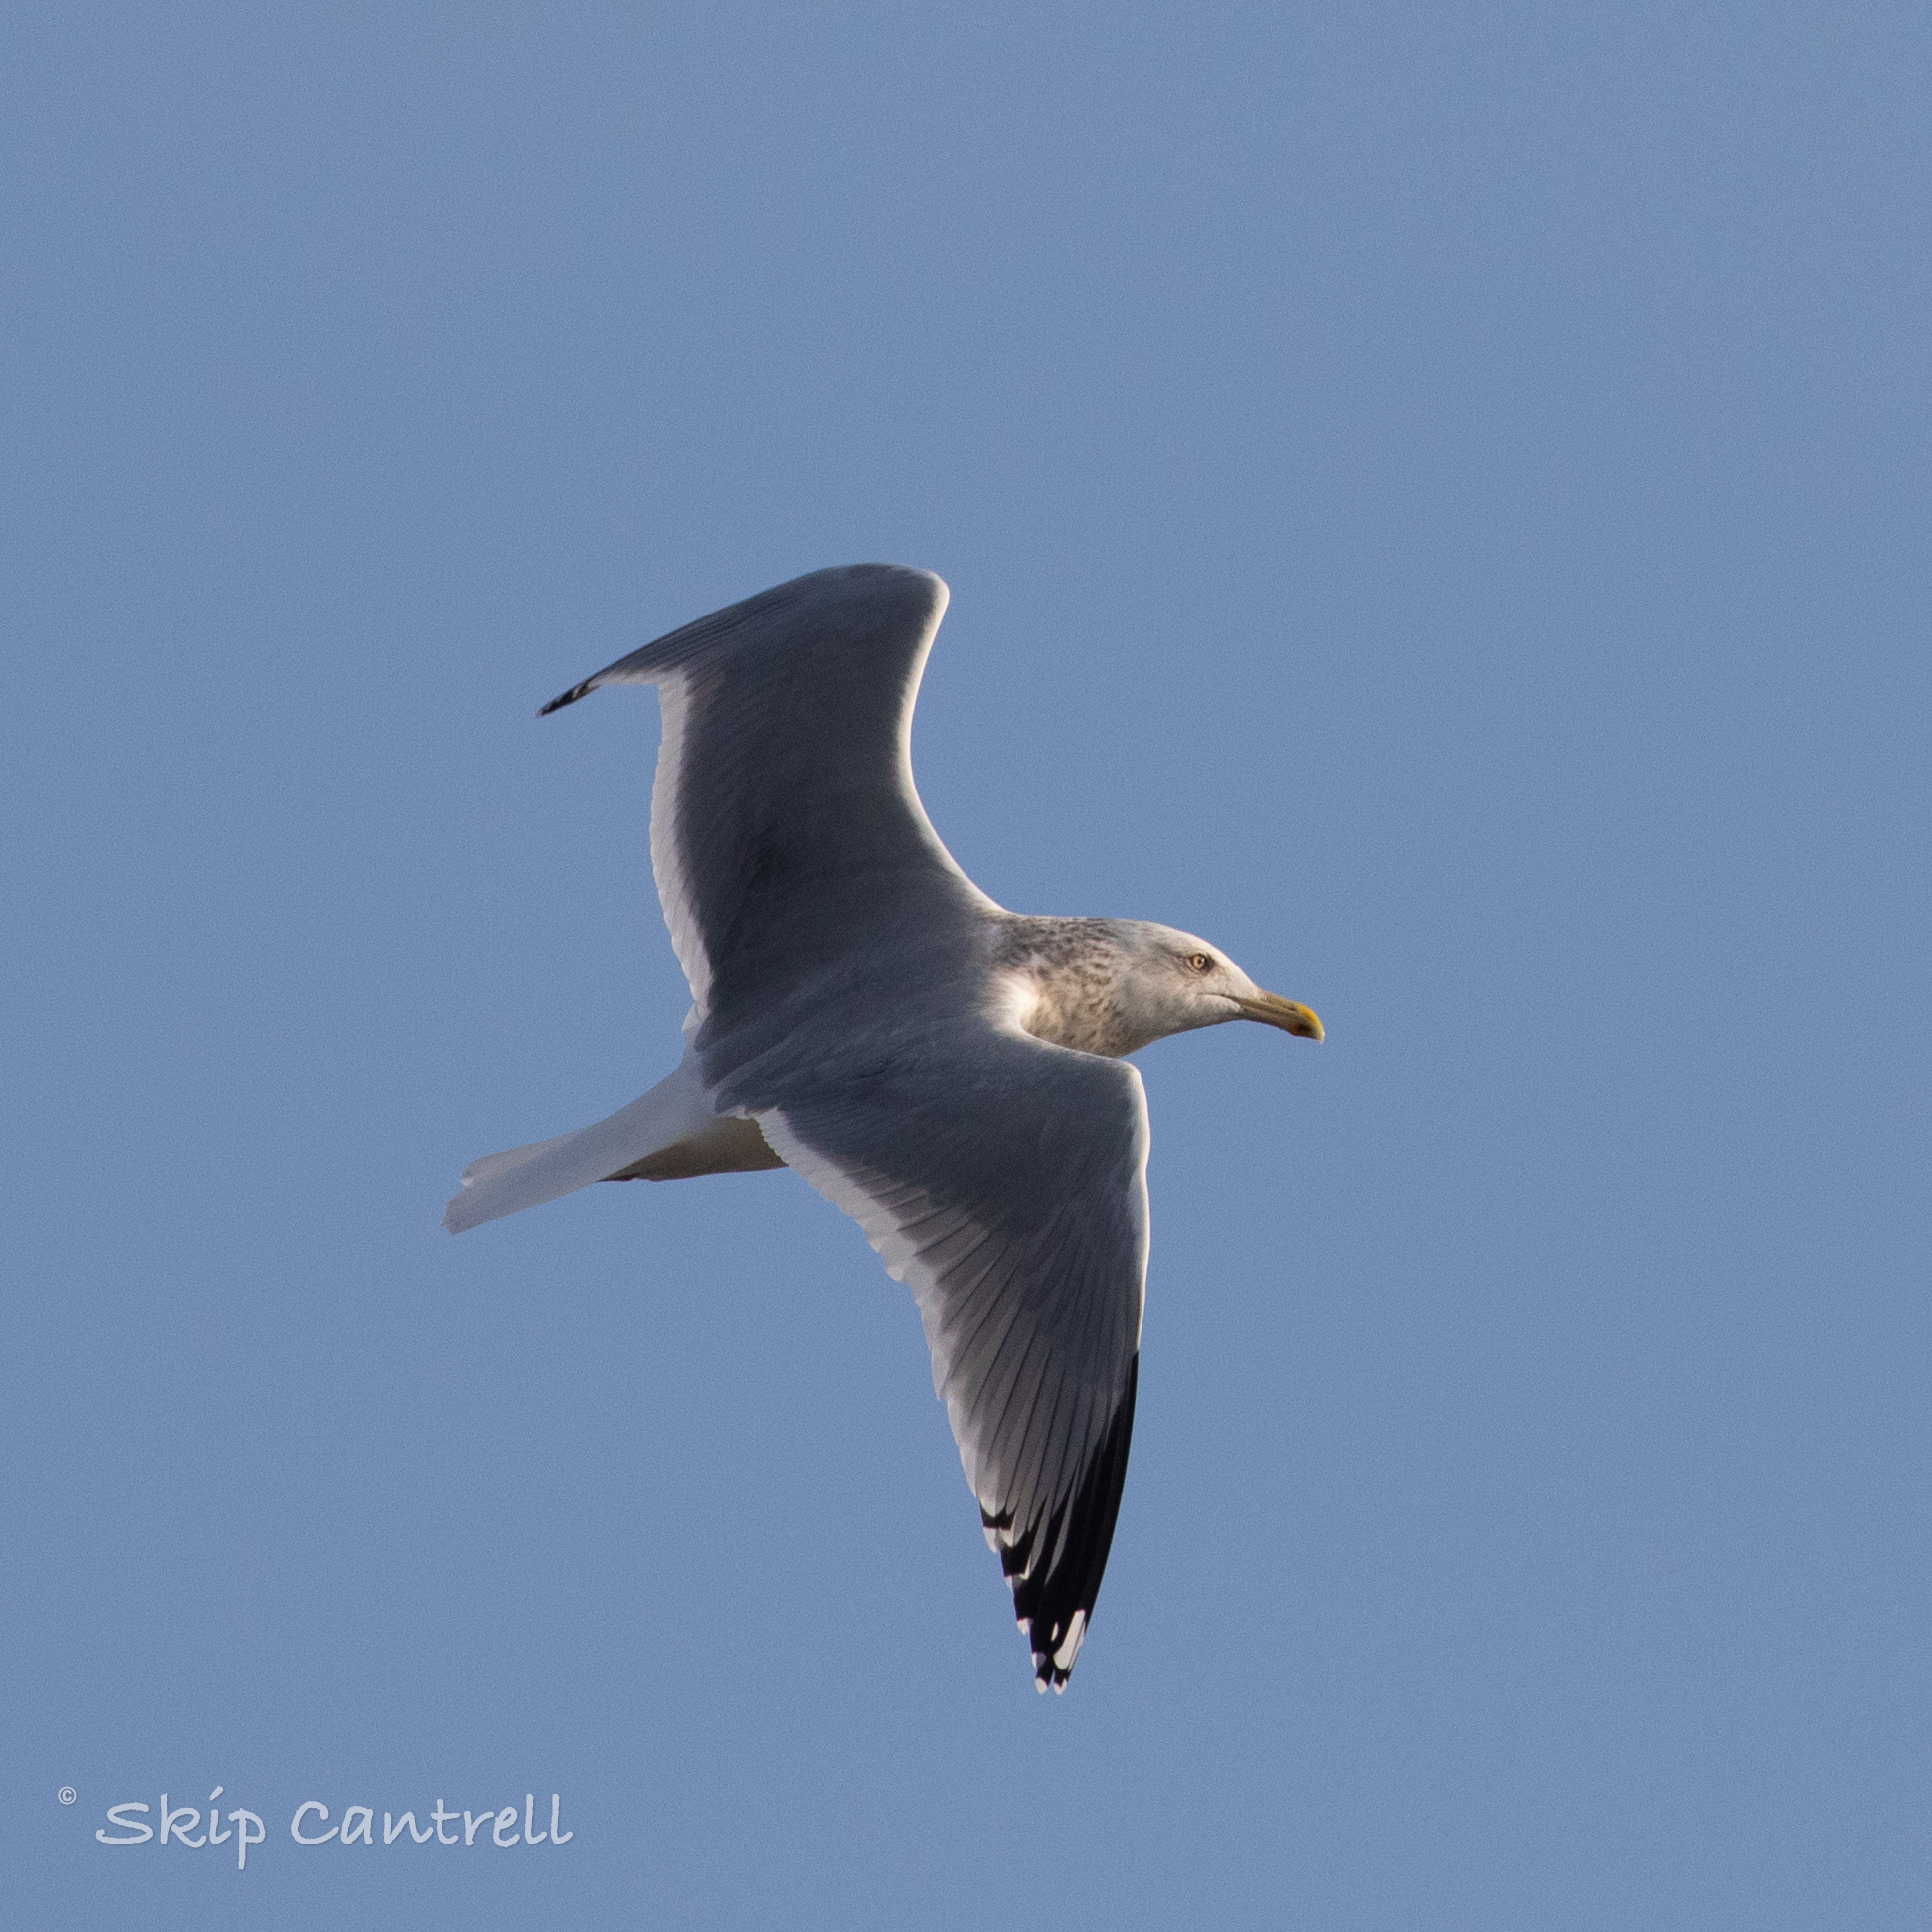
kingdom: Animalia
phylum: Chordata
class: Aves
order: Charadriiformes
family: Laridae
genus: Larus
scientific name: Larus argentatus
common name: Herring gull
